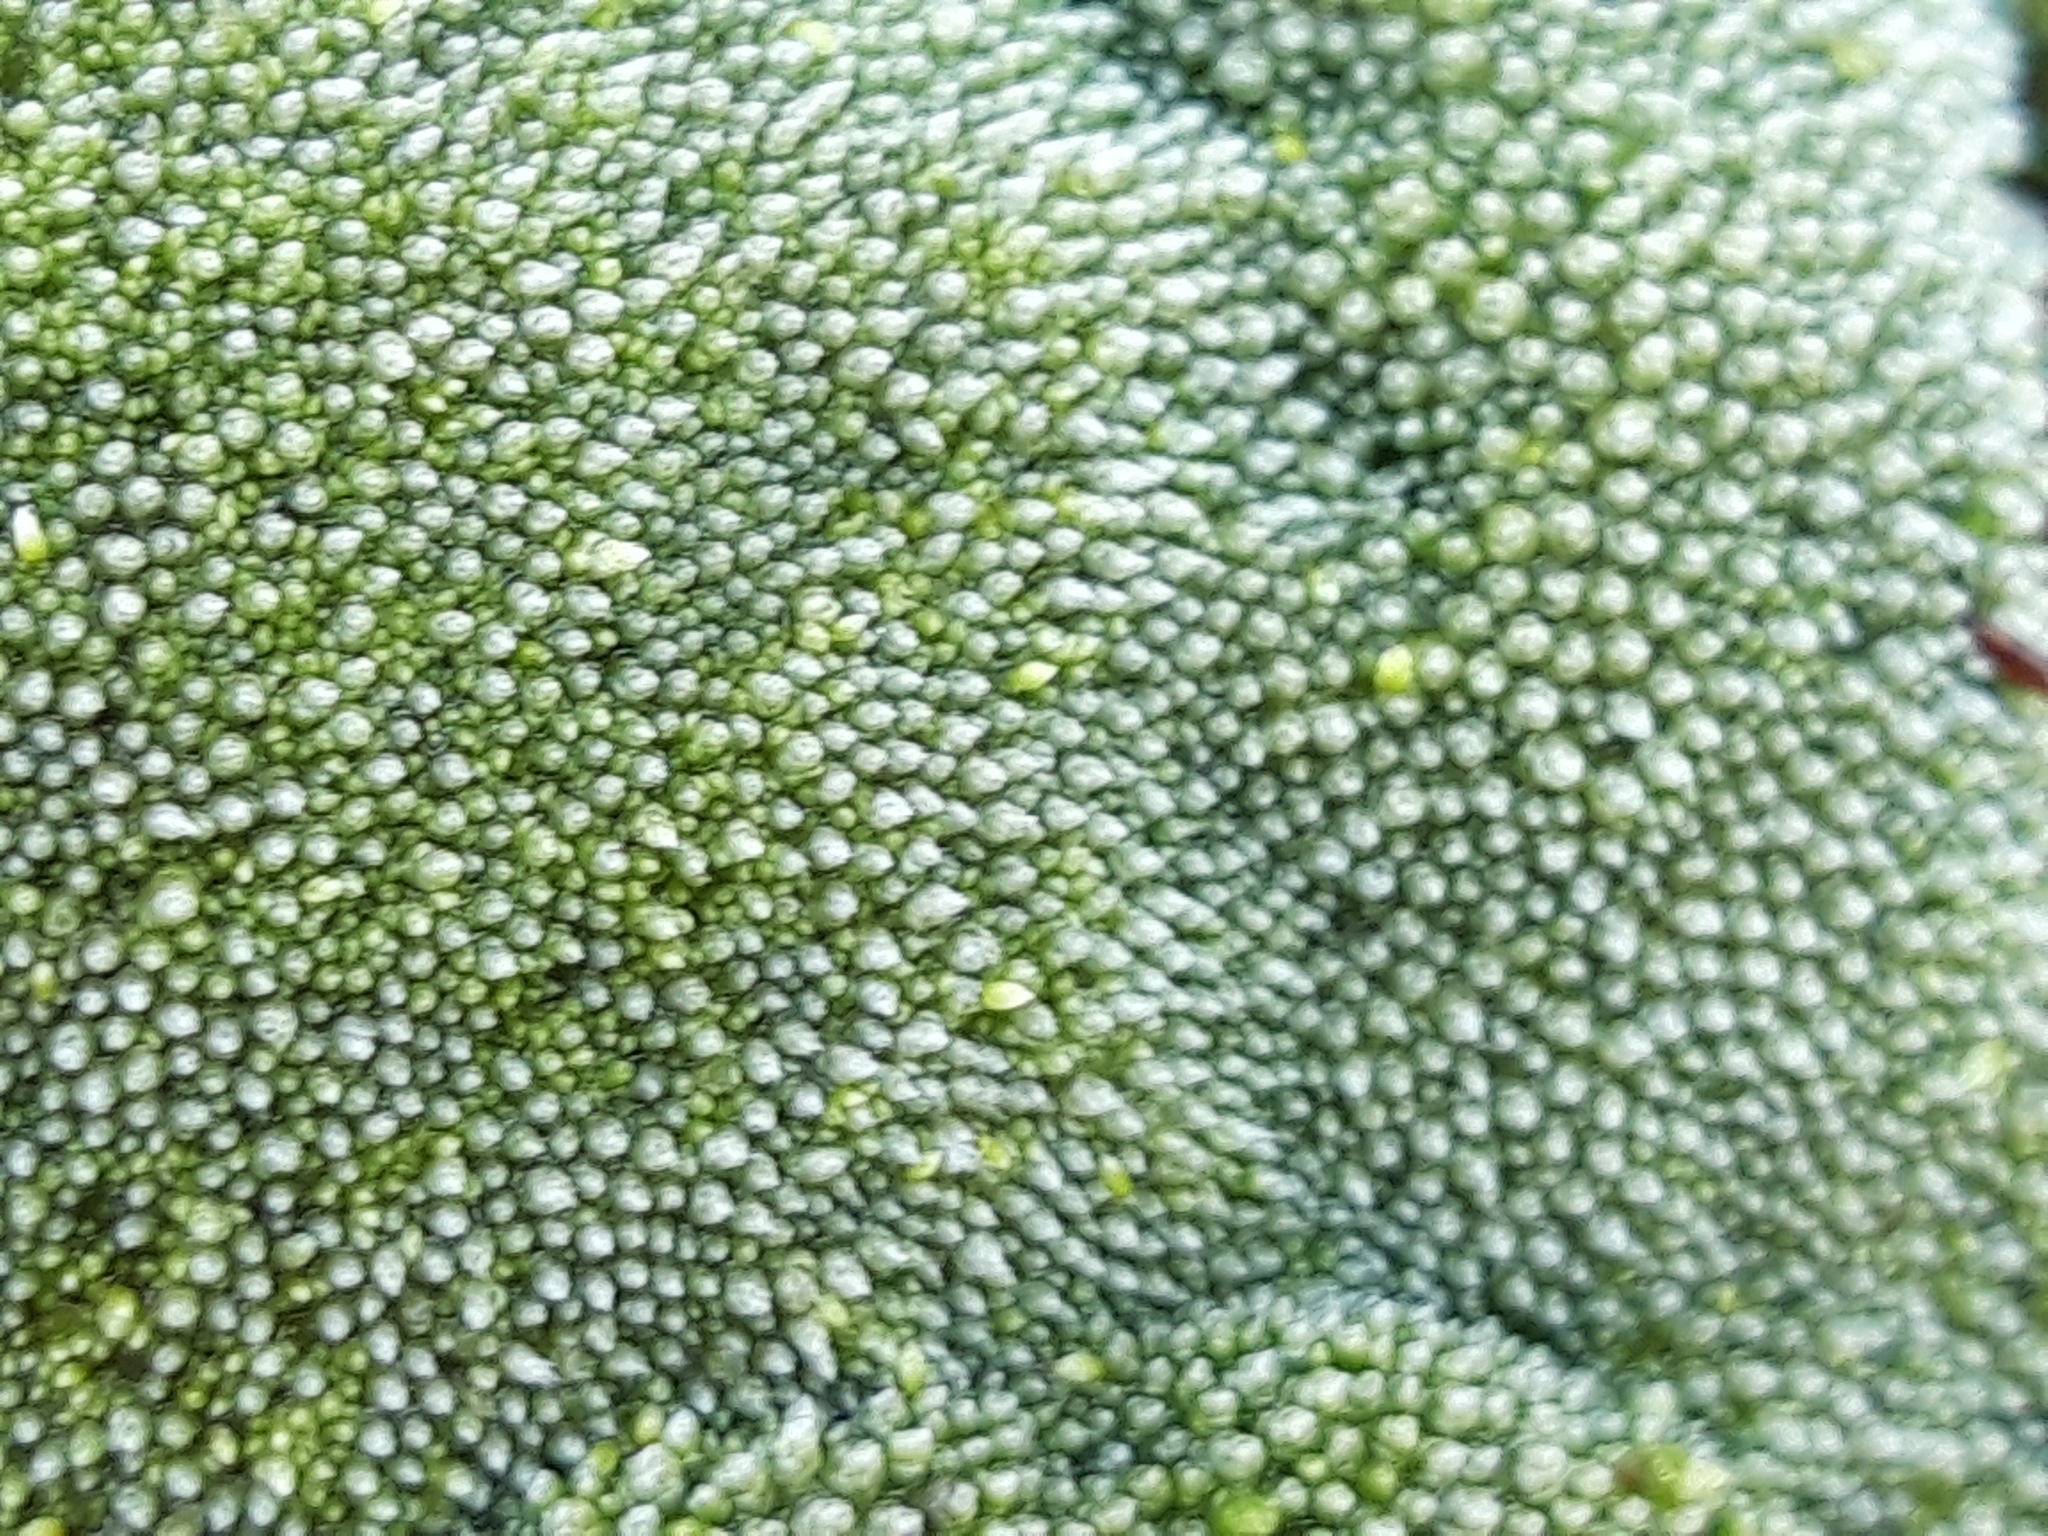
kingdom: Plantae
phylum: Bryophyta
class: Bryopsida
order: Bryales
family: Bryaceae
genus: Bryum
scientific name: Bryum argenteum
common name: Silver-moss
